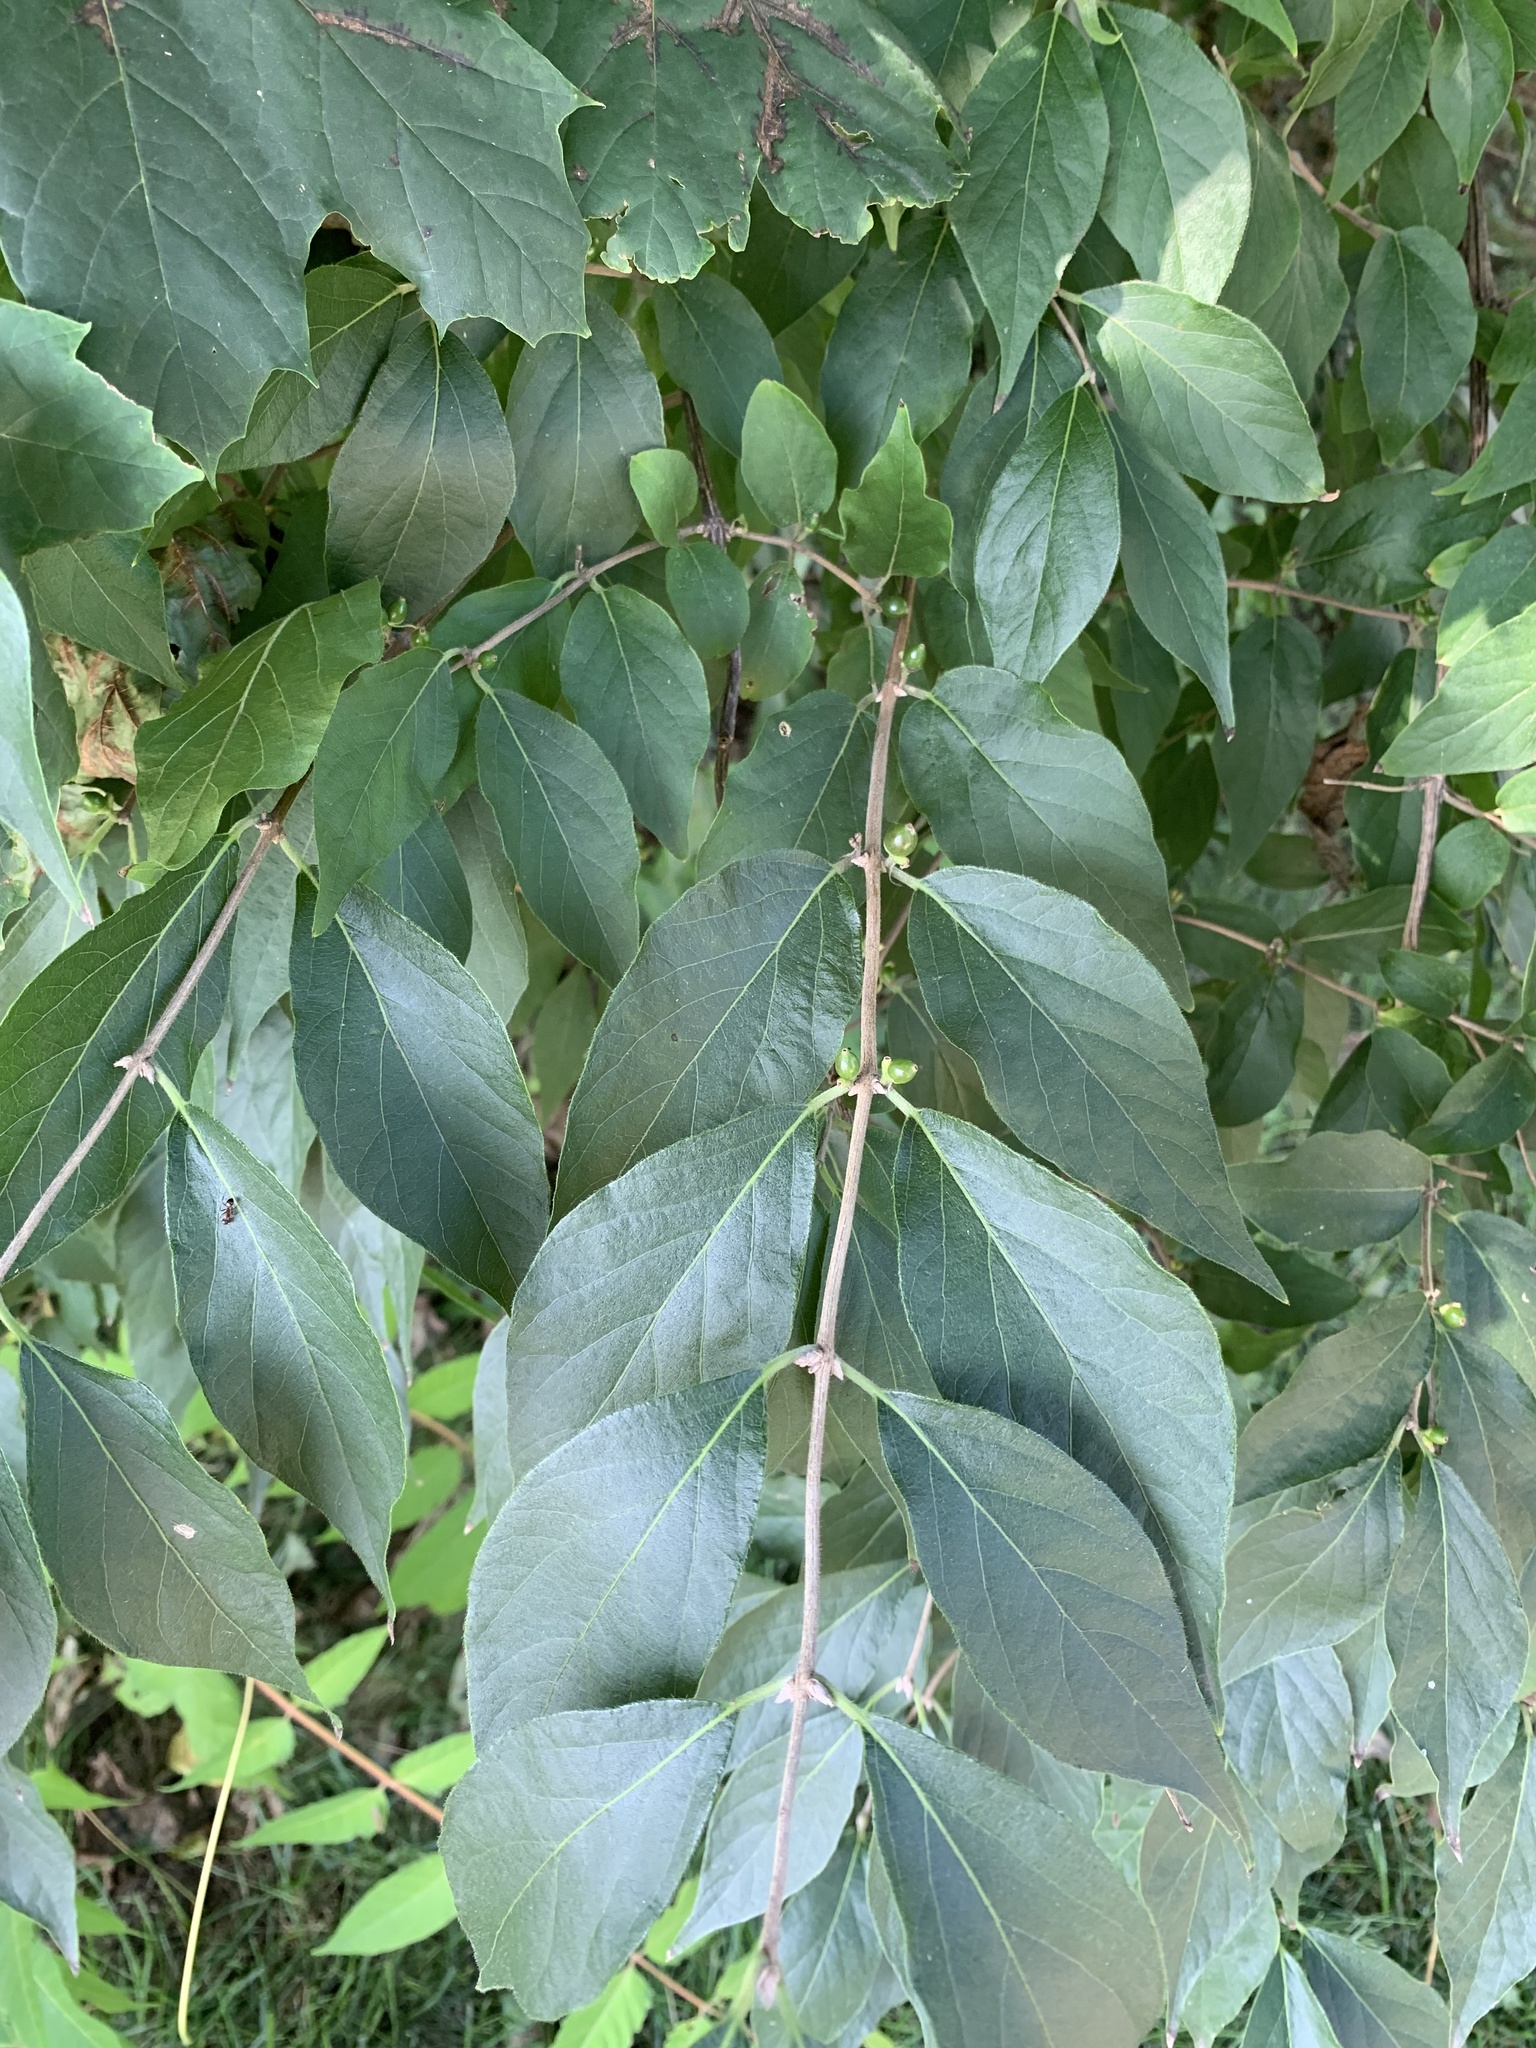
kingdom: Plantae
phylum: Tracheophyta
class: Magnoliopsida
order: Dipsacales
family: Caprifoliaceae
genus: Lonicera
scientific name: Lonicera maackii
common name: Amur honeysuckle
